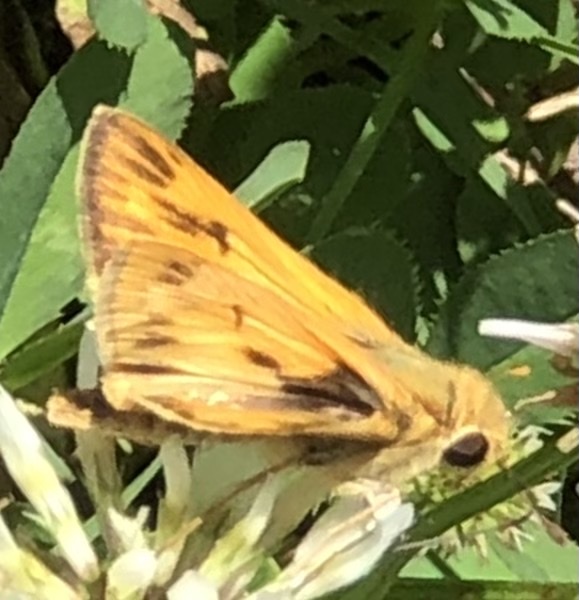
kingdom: Animalia
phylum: Arthropoda
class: Insecta
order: Lepidoptera
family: Hesperiidae
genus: Hylephila
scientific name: Hylephila phyleus
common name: Fiery skipper
